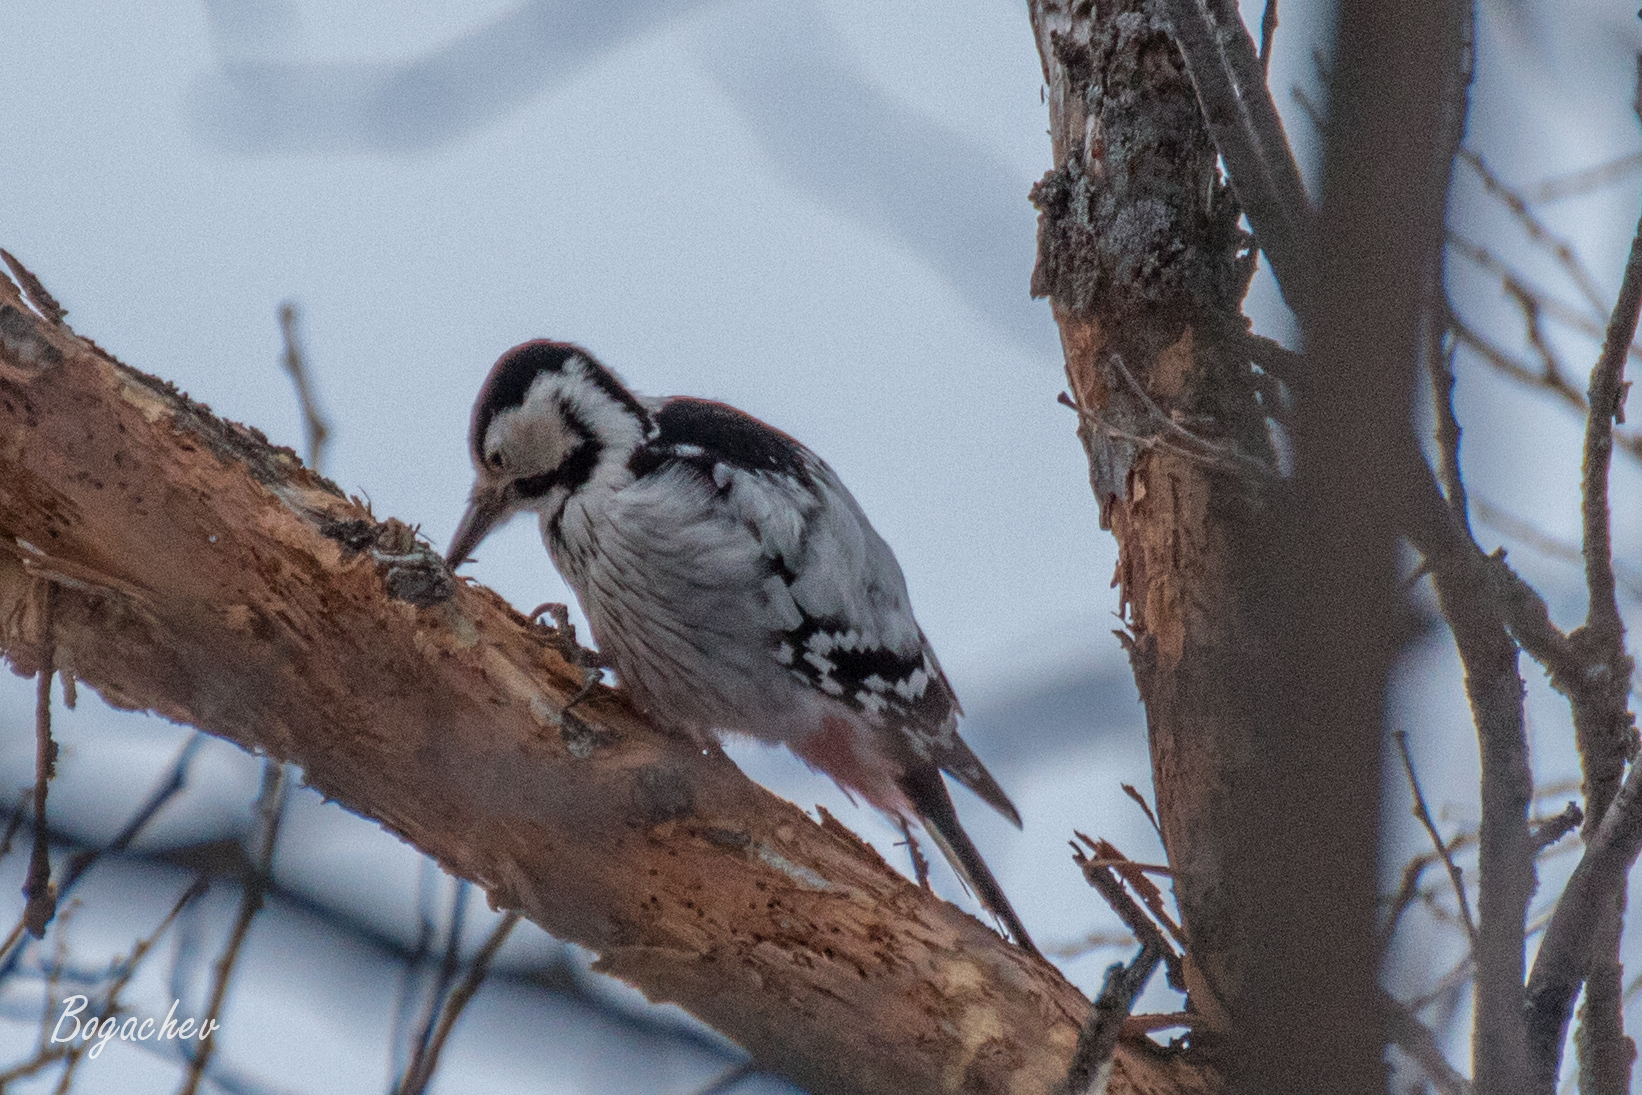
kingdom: Animalia
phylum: Chordata
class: Aves
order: Piciformes
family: Picidae
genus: Dendrocopos
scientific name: Dendrocopos leucotos
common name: White-backed woodpecker
